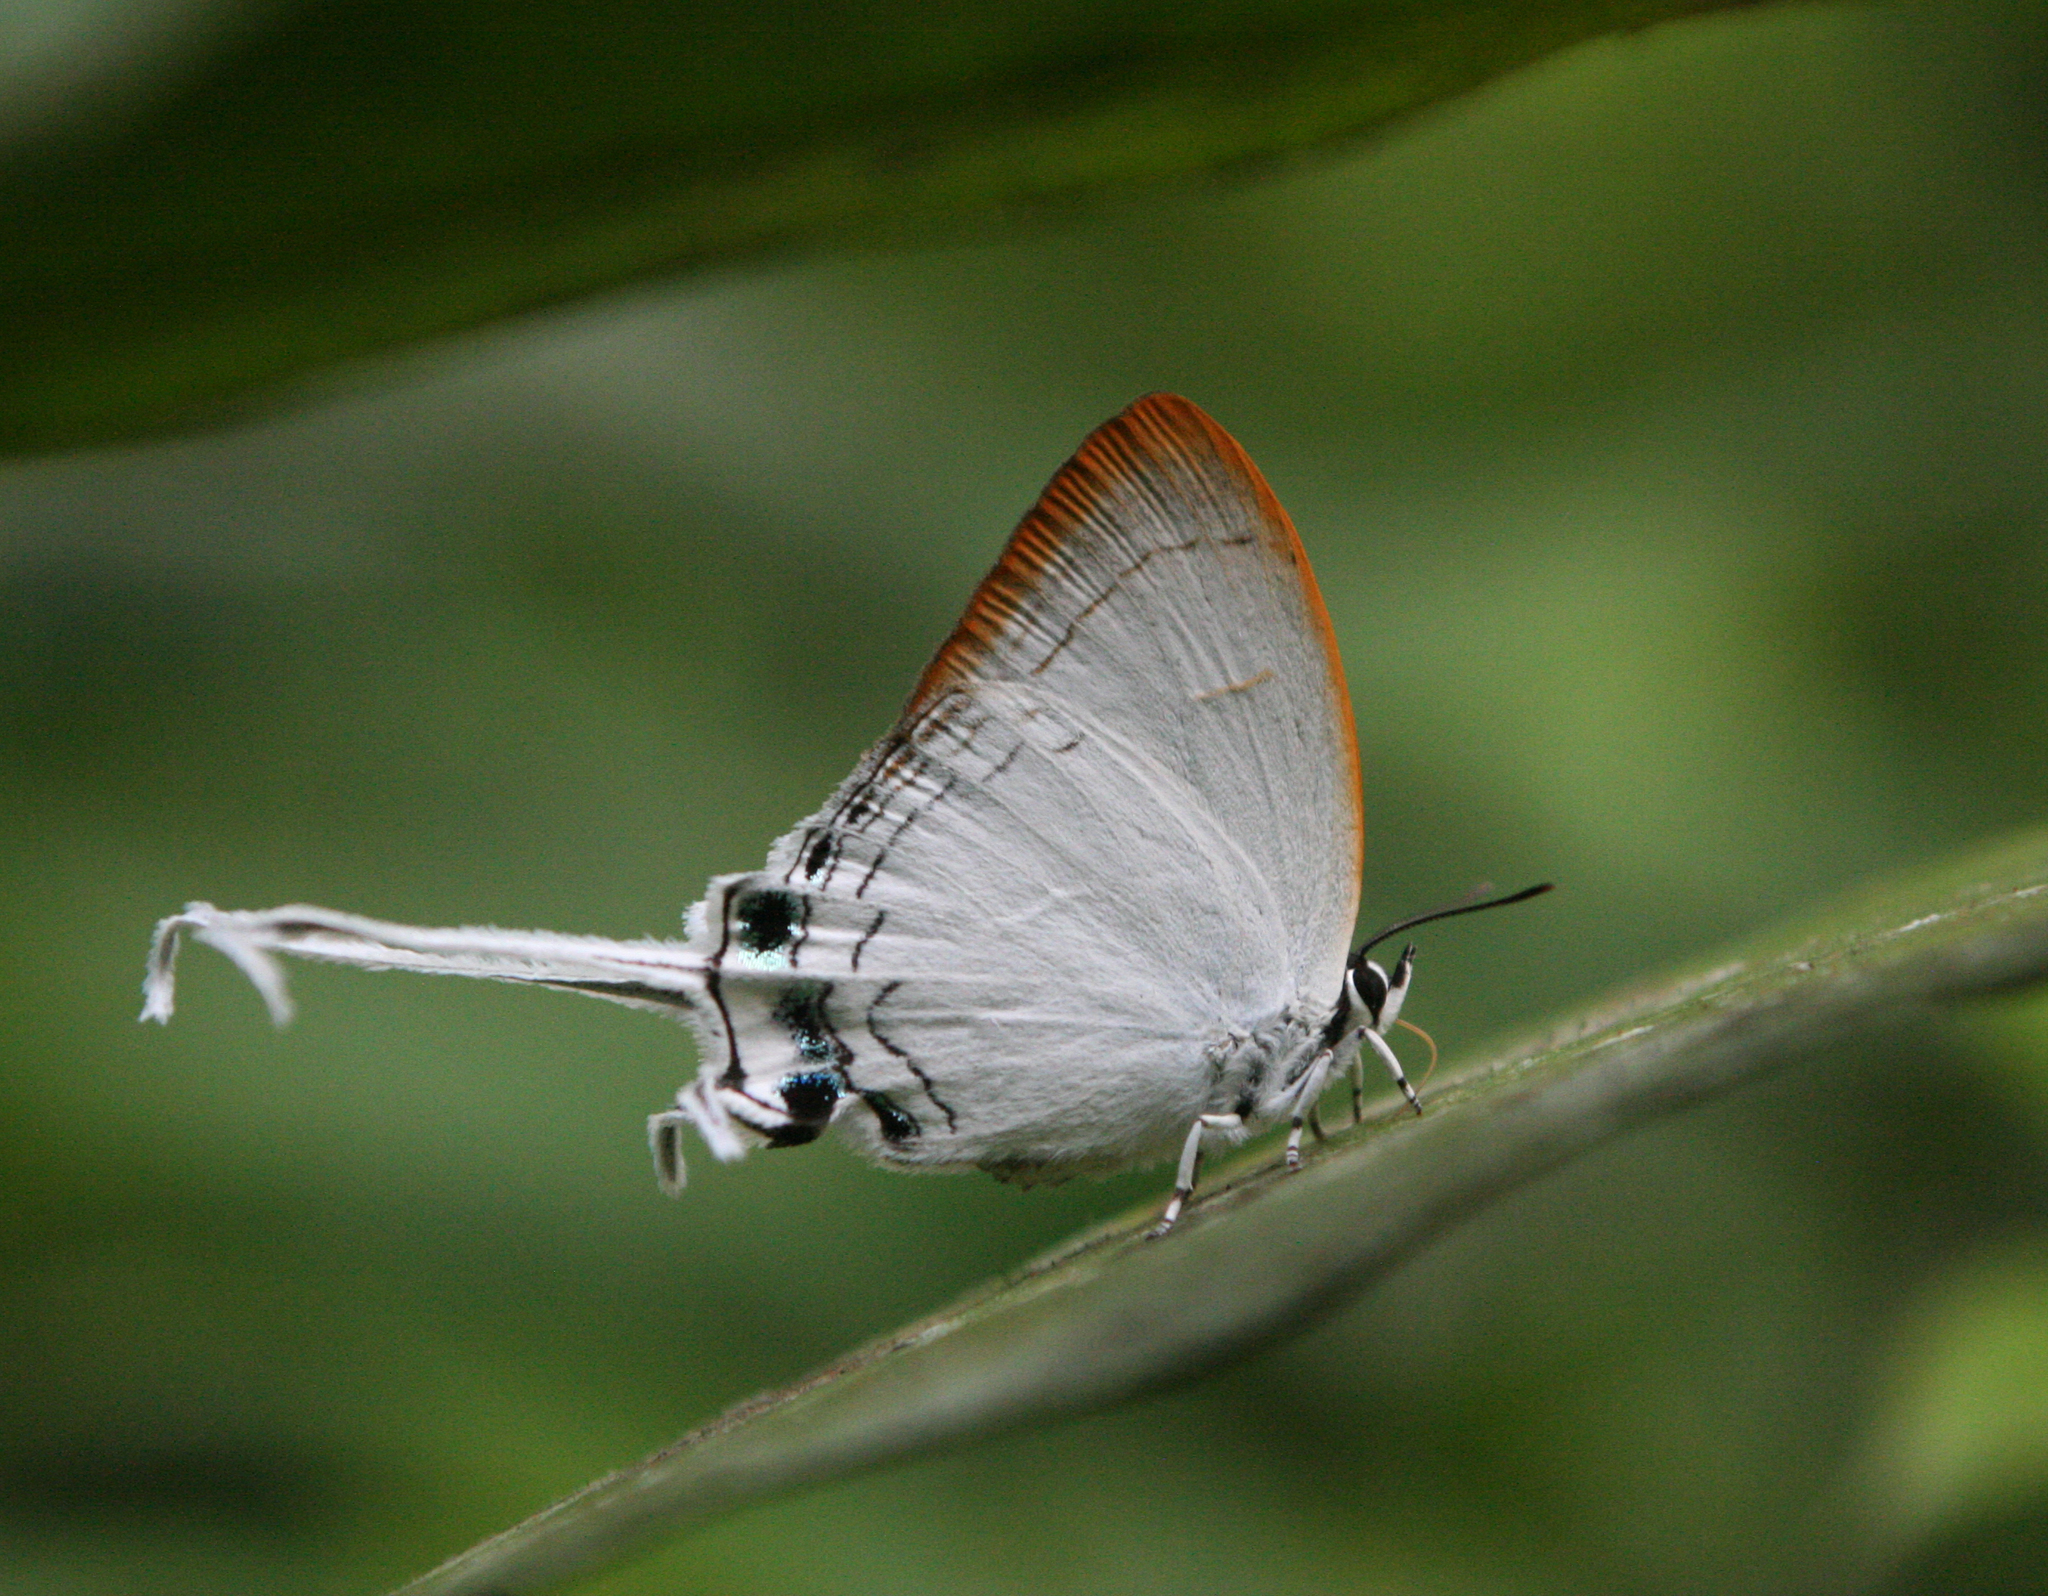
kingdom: Animalia
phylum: Arthropoda
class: Insecta
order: Lepidoptera
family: Lycaenidae
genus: Cheritra
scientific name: Cheritra freja
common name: Common imperial
